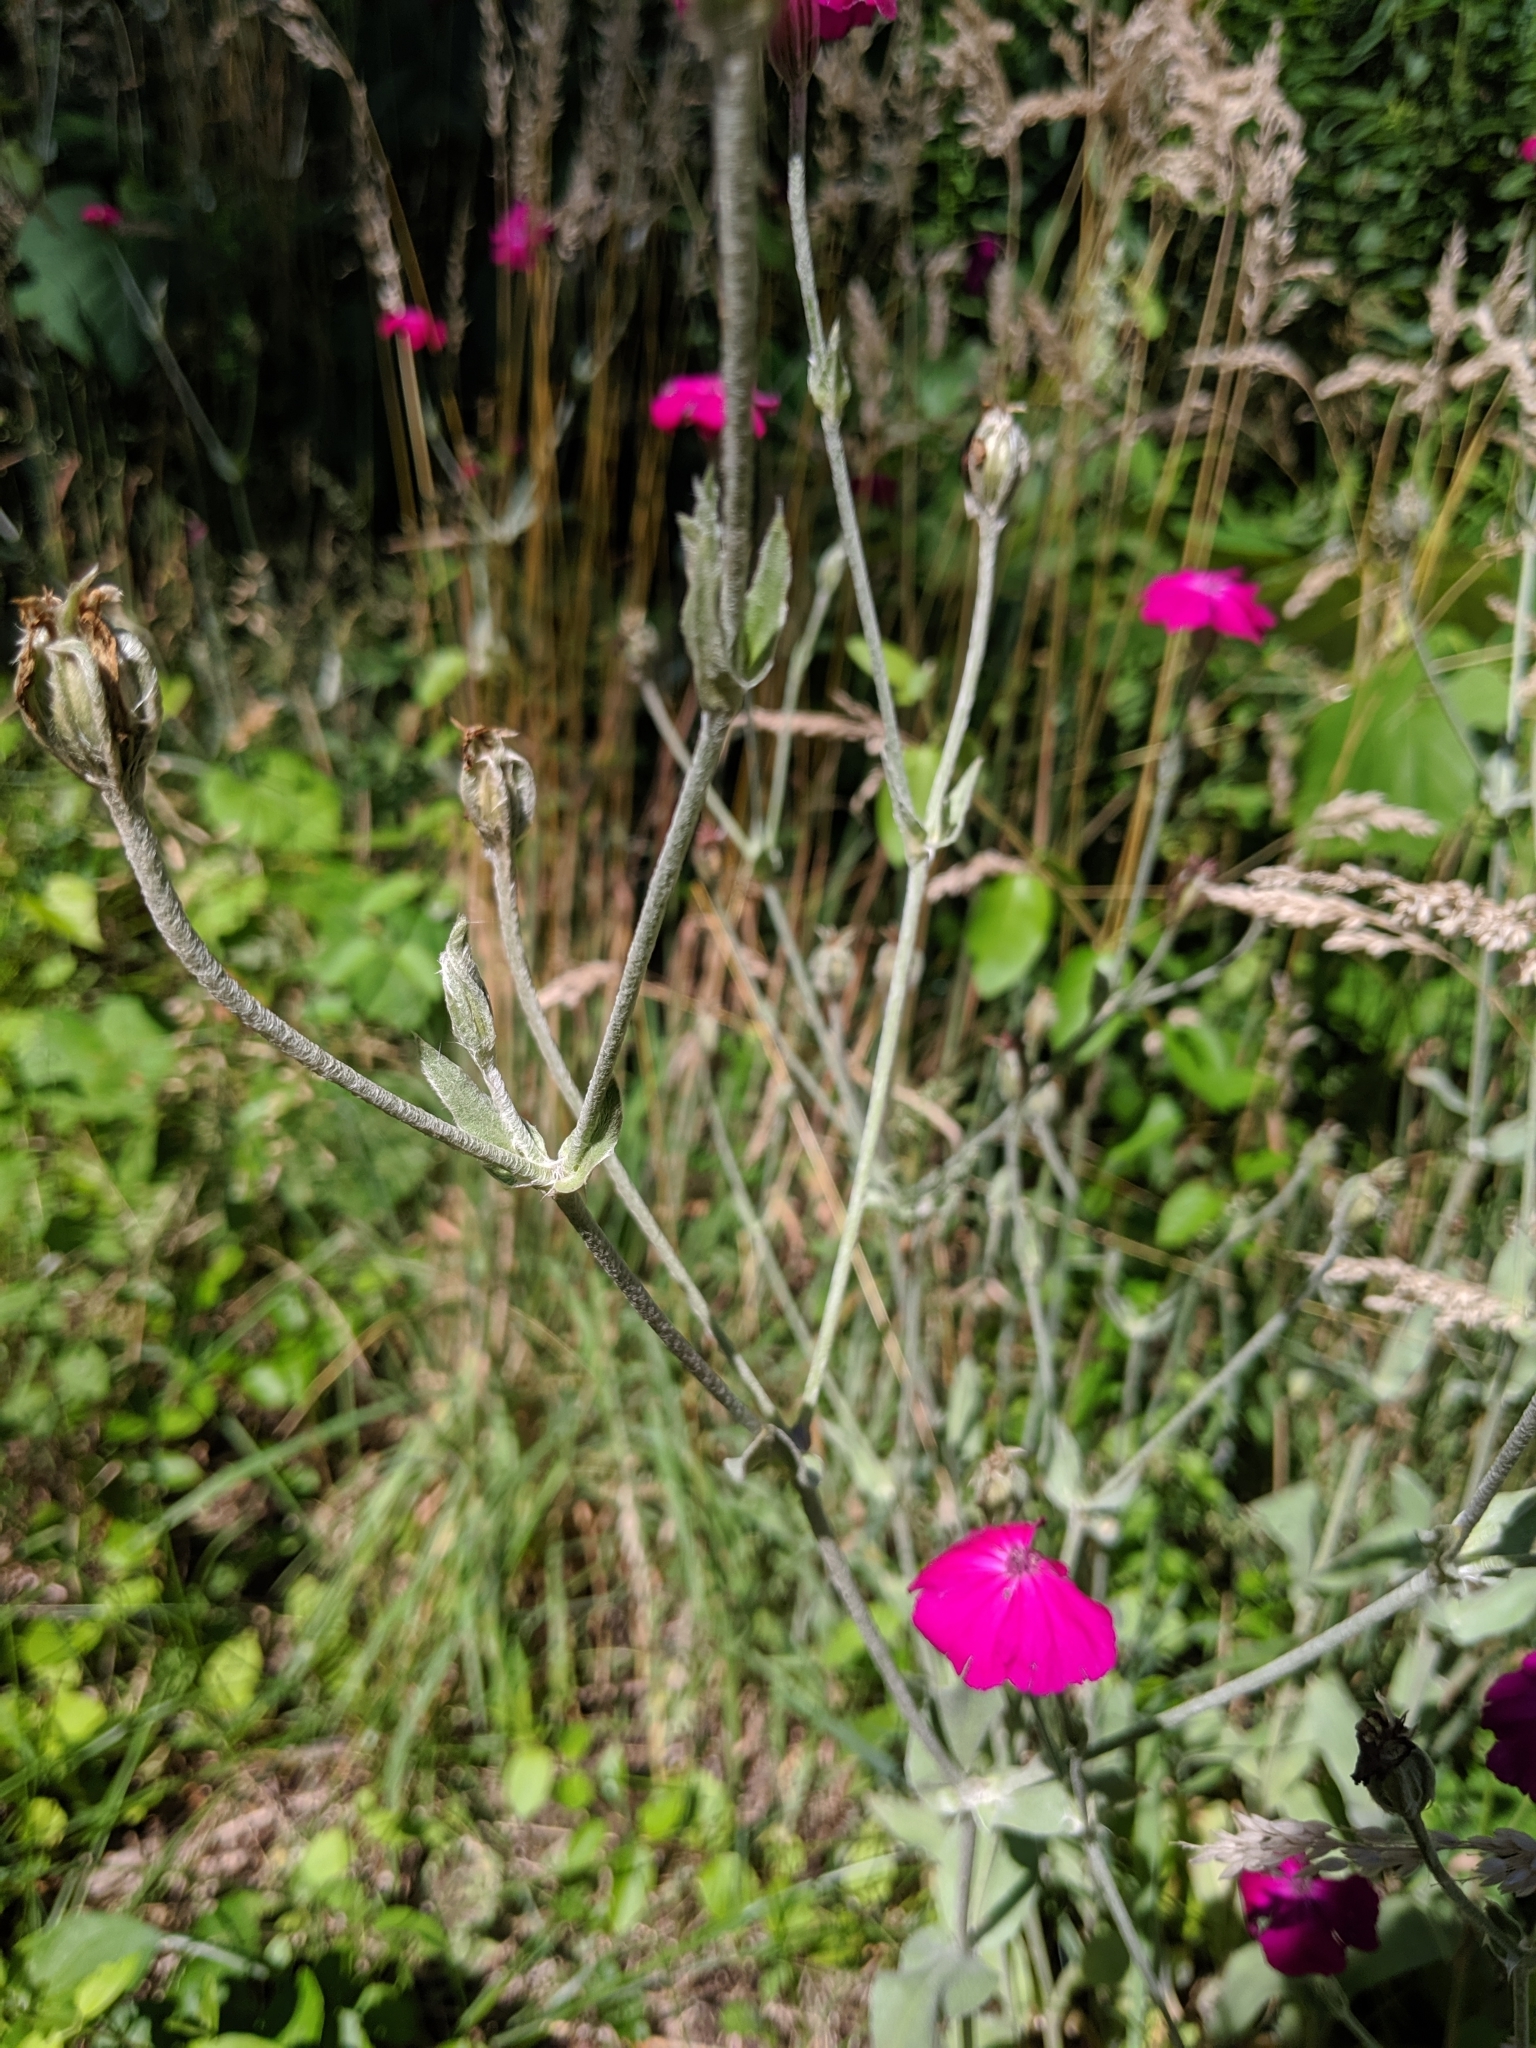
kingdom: Plantae
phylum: Tracheophyta
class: Magnoliopsida
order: Caryophyllales
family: Caryophyllaceae
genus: Silene
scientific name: Silene coronaria
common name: Rose campion
